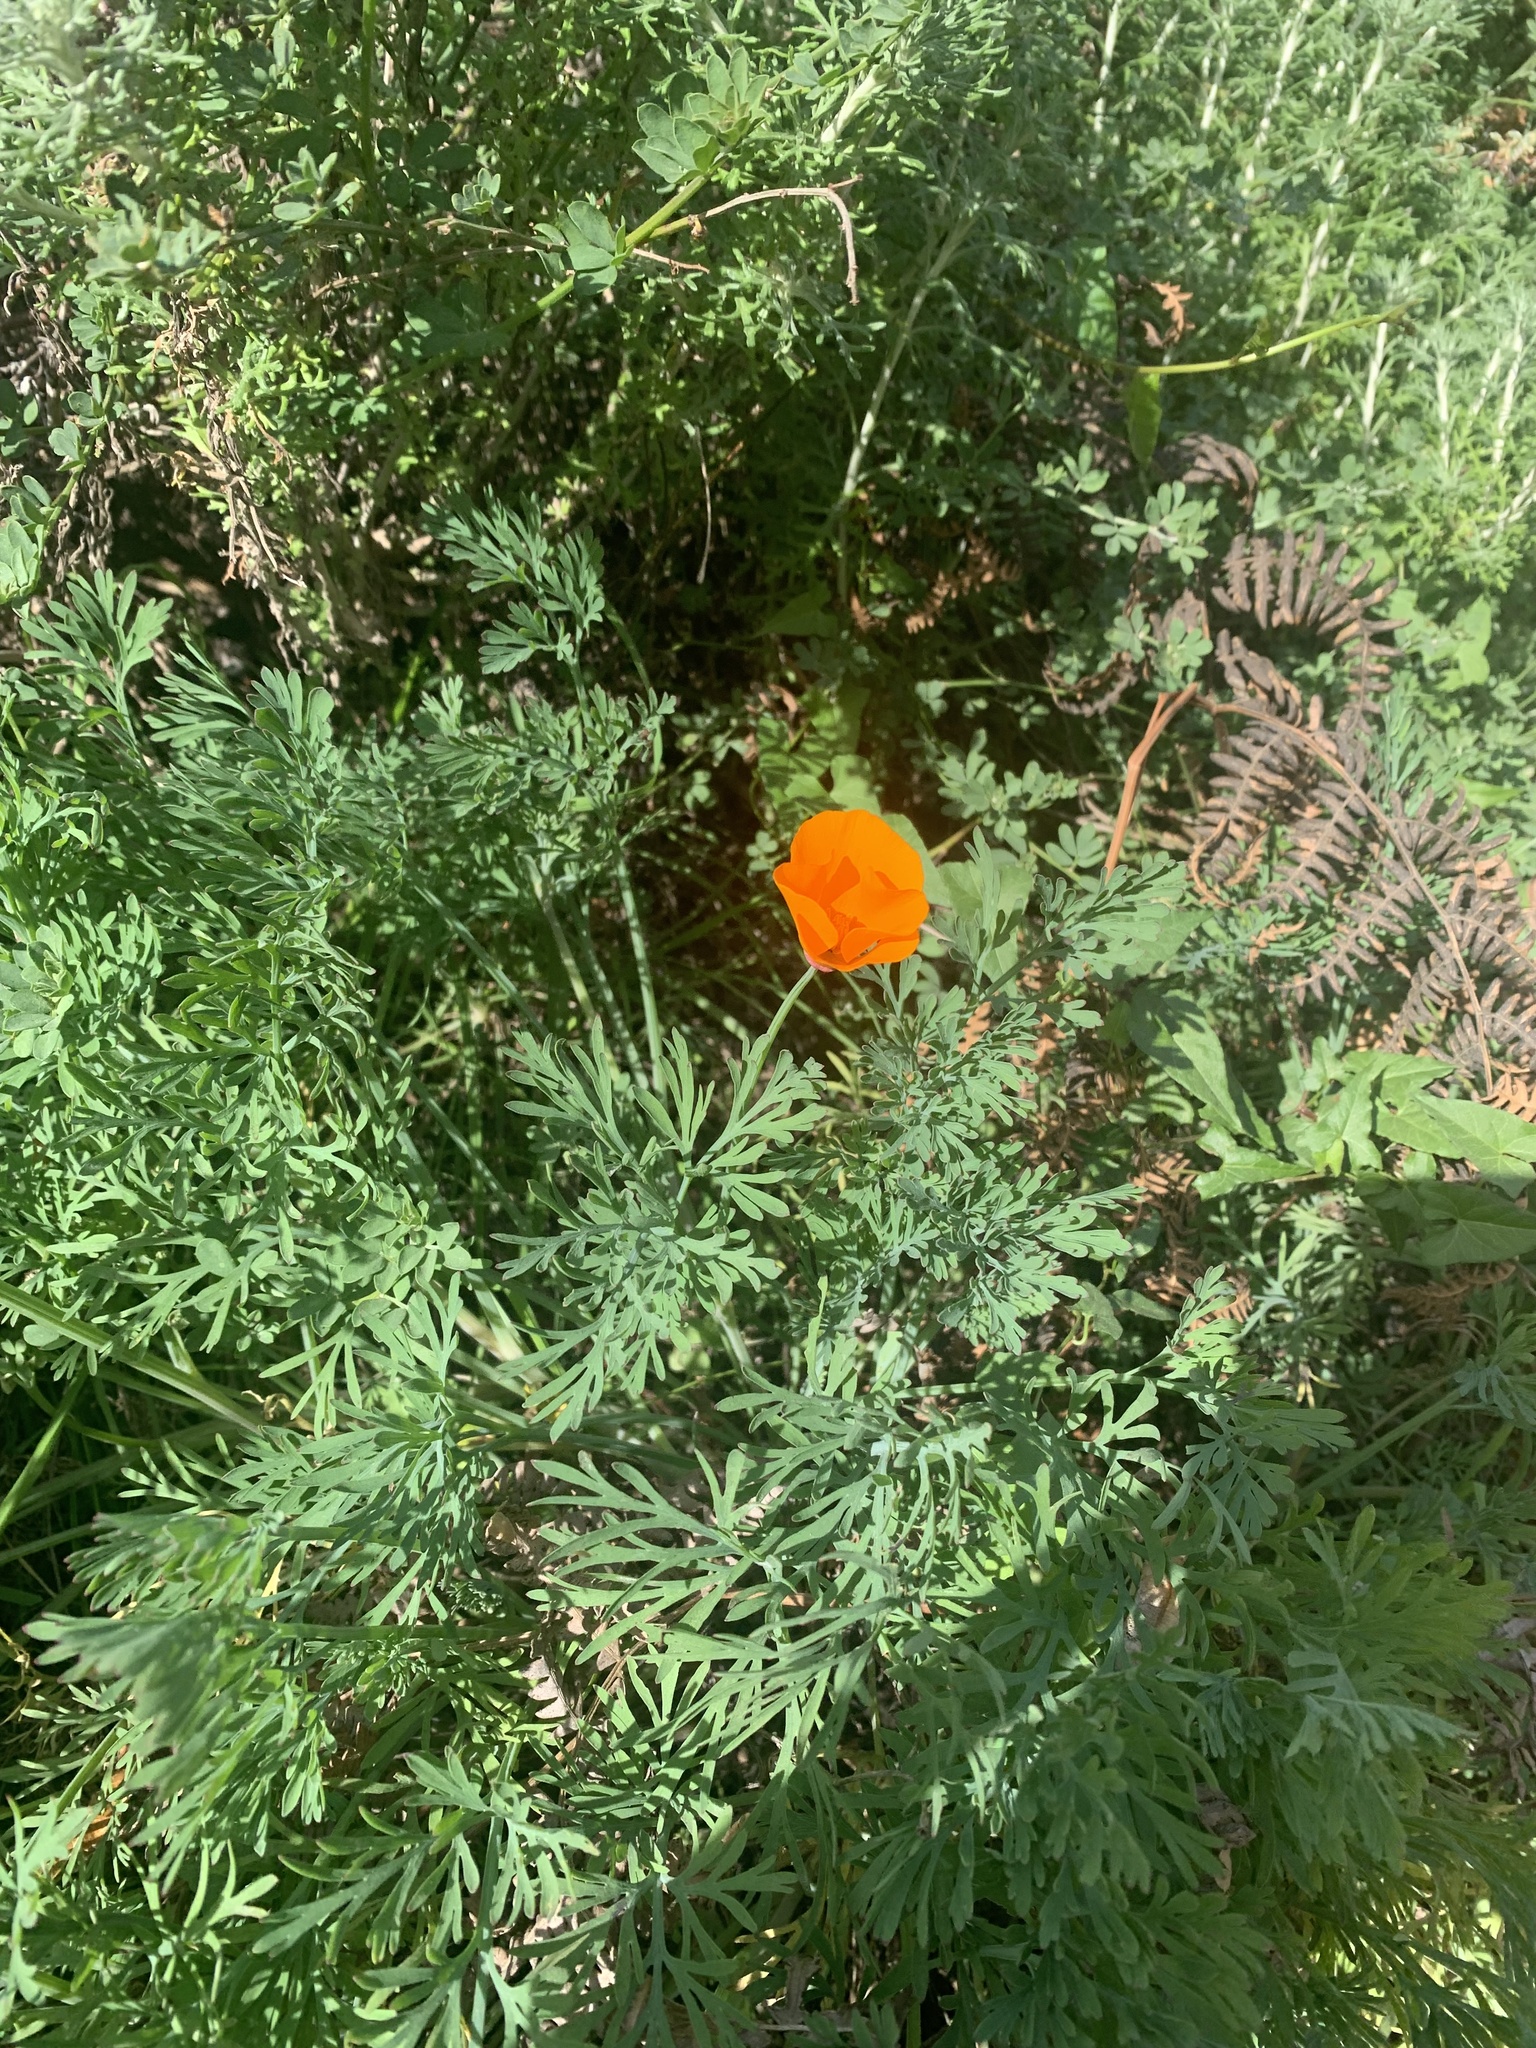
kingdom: Plantae
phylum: Tracheophyta
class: Magnoliopsida
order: Ranunculales
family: Papaveraceae
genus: Eschscholzia
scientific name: Eschscholzia californica
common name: California poppy
